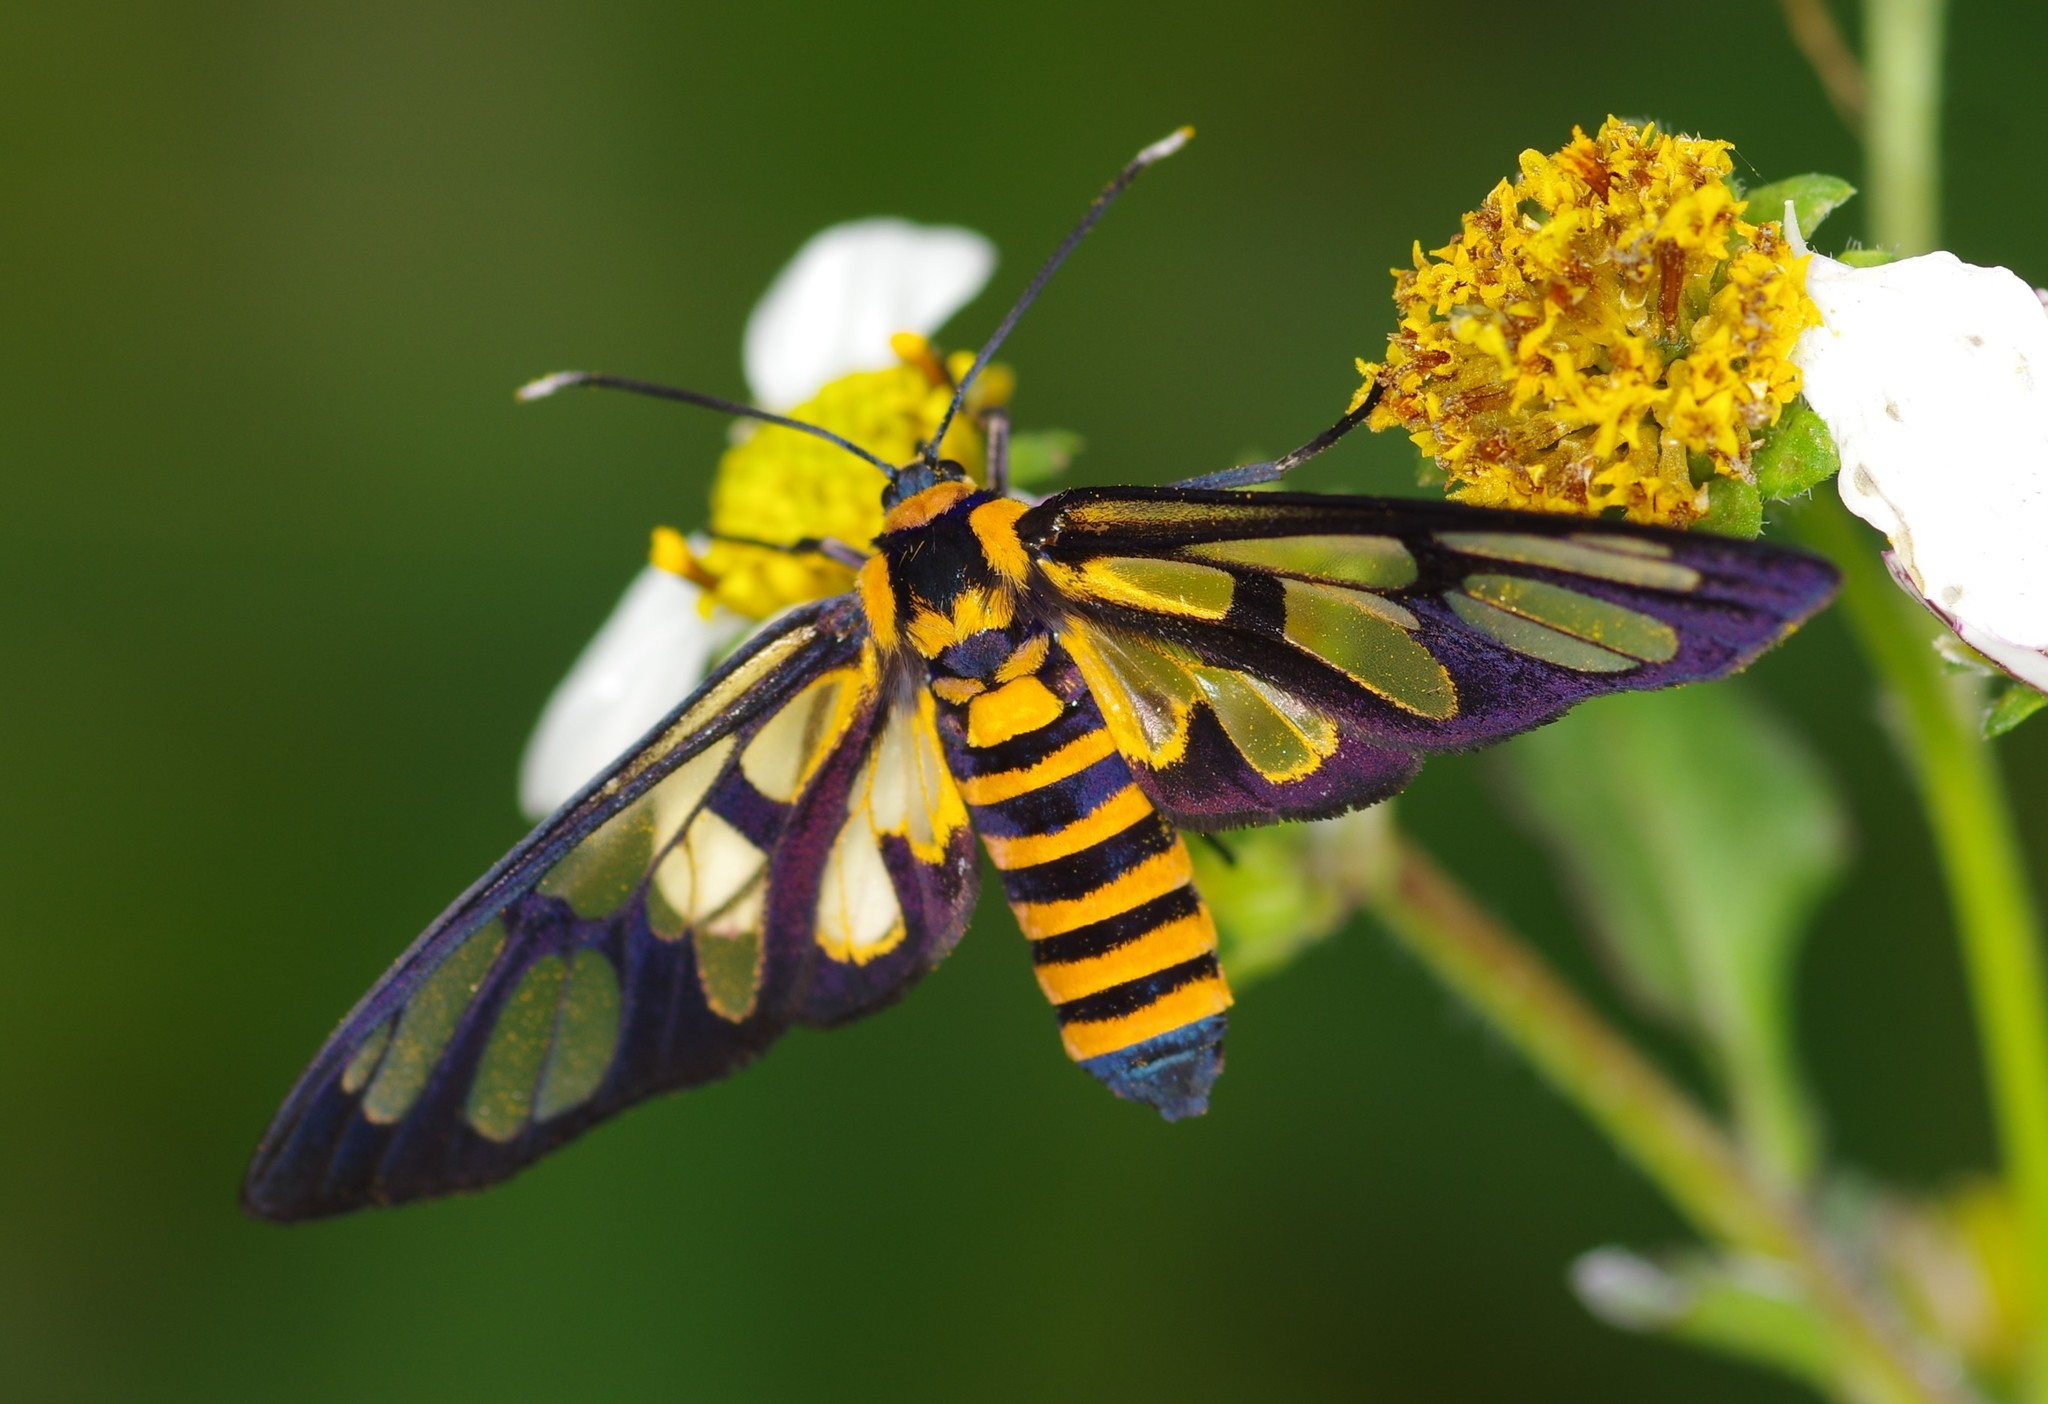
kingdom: Animalia
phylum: Arthropoda
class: Insecta
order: Lepidoptera
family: Erebidae
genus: Amata
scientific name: Amata huebneri
